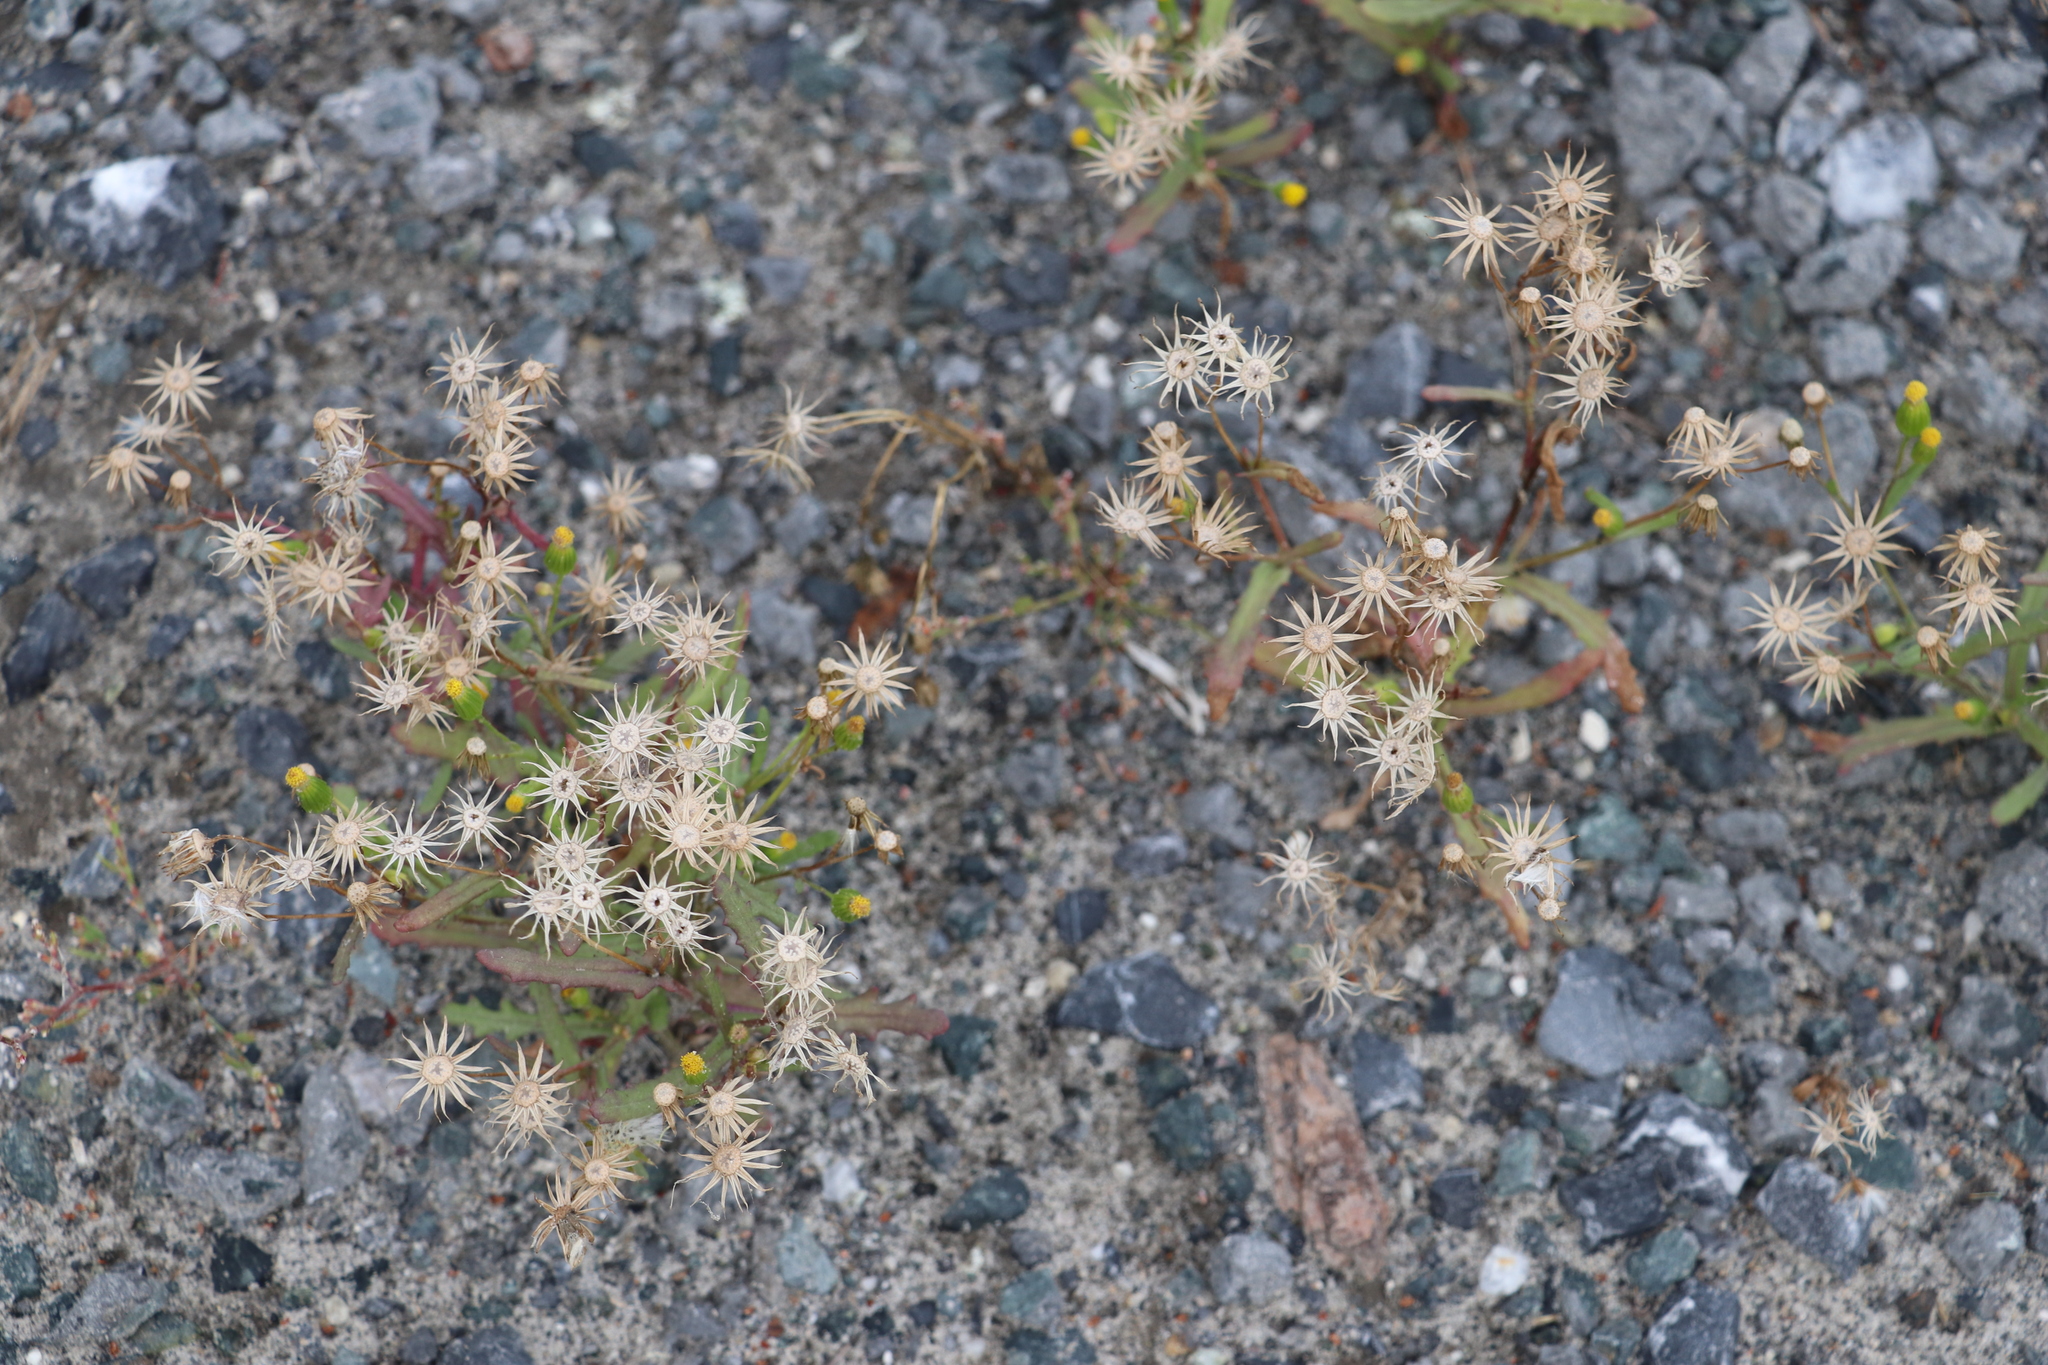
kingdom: Plantae
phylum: Tracheophyta
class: Magnoliopsida
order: Asterales
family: Asteraceae
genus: Senecio
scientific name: Senecio dubitabilis
